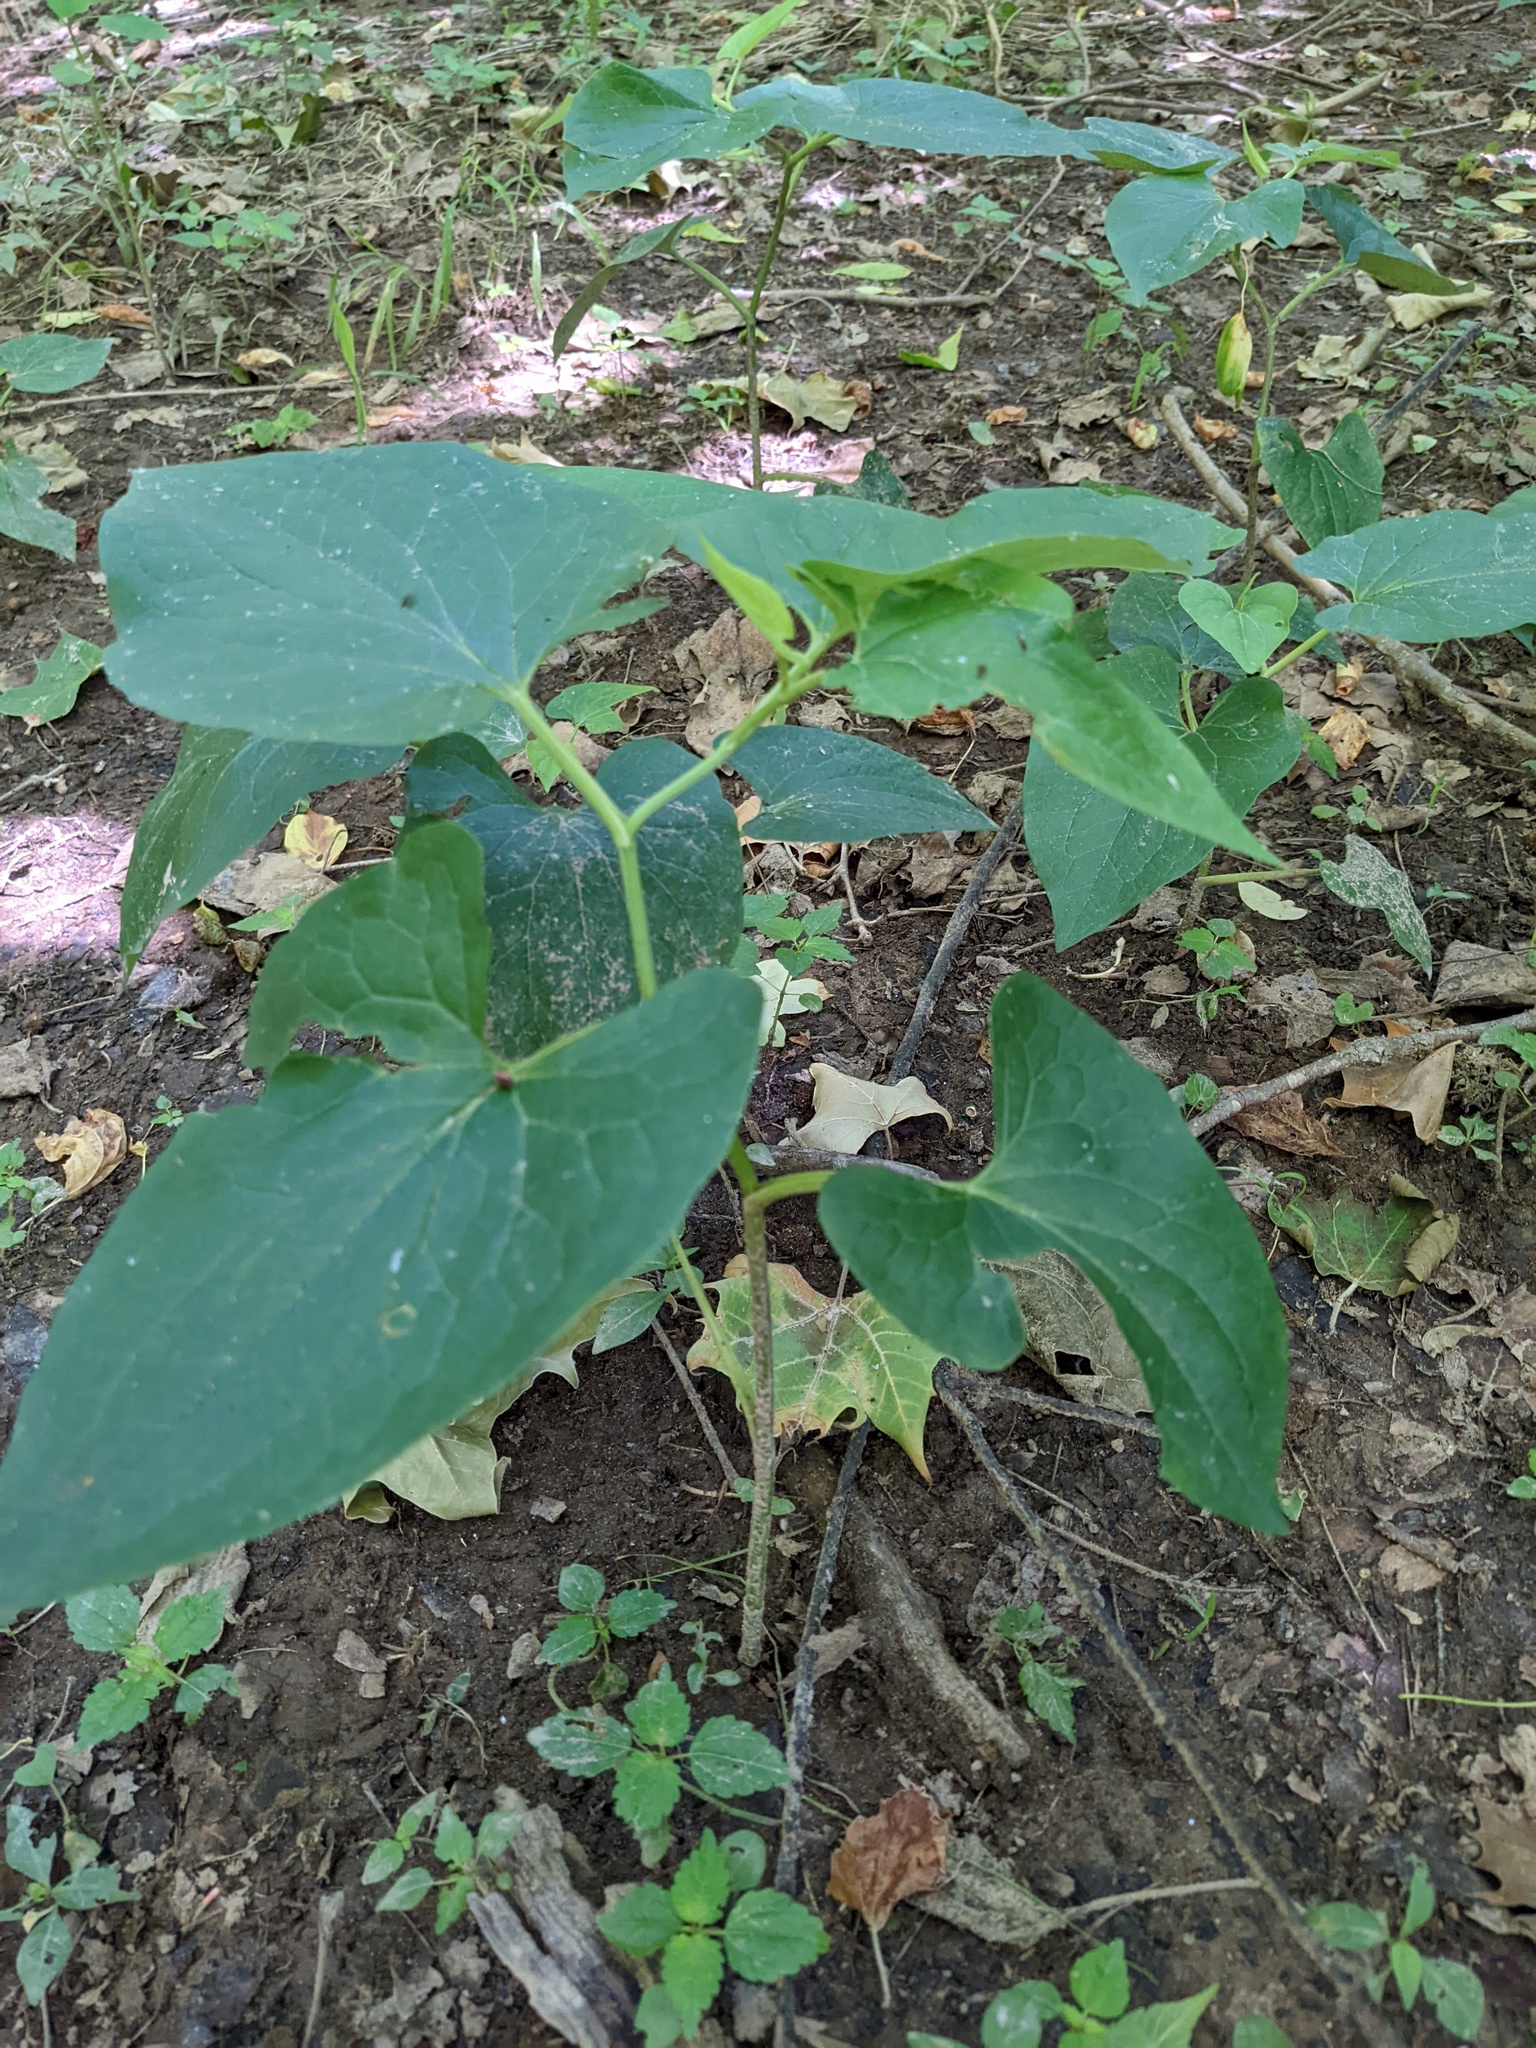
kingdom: Plantae
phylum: Tracheophyta
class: Magnoliopsida
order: Piperales
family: Saururaceae
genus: Saururus
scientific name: Saururus cernuus
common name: Lizard's-tail
